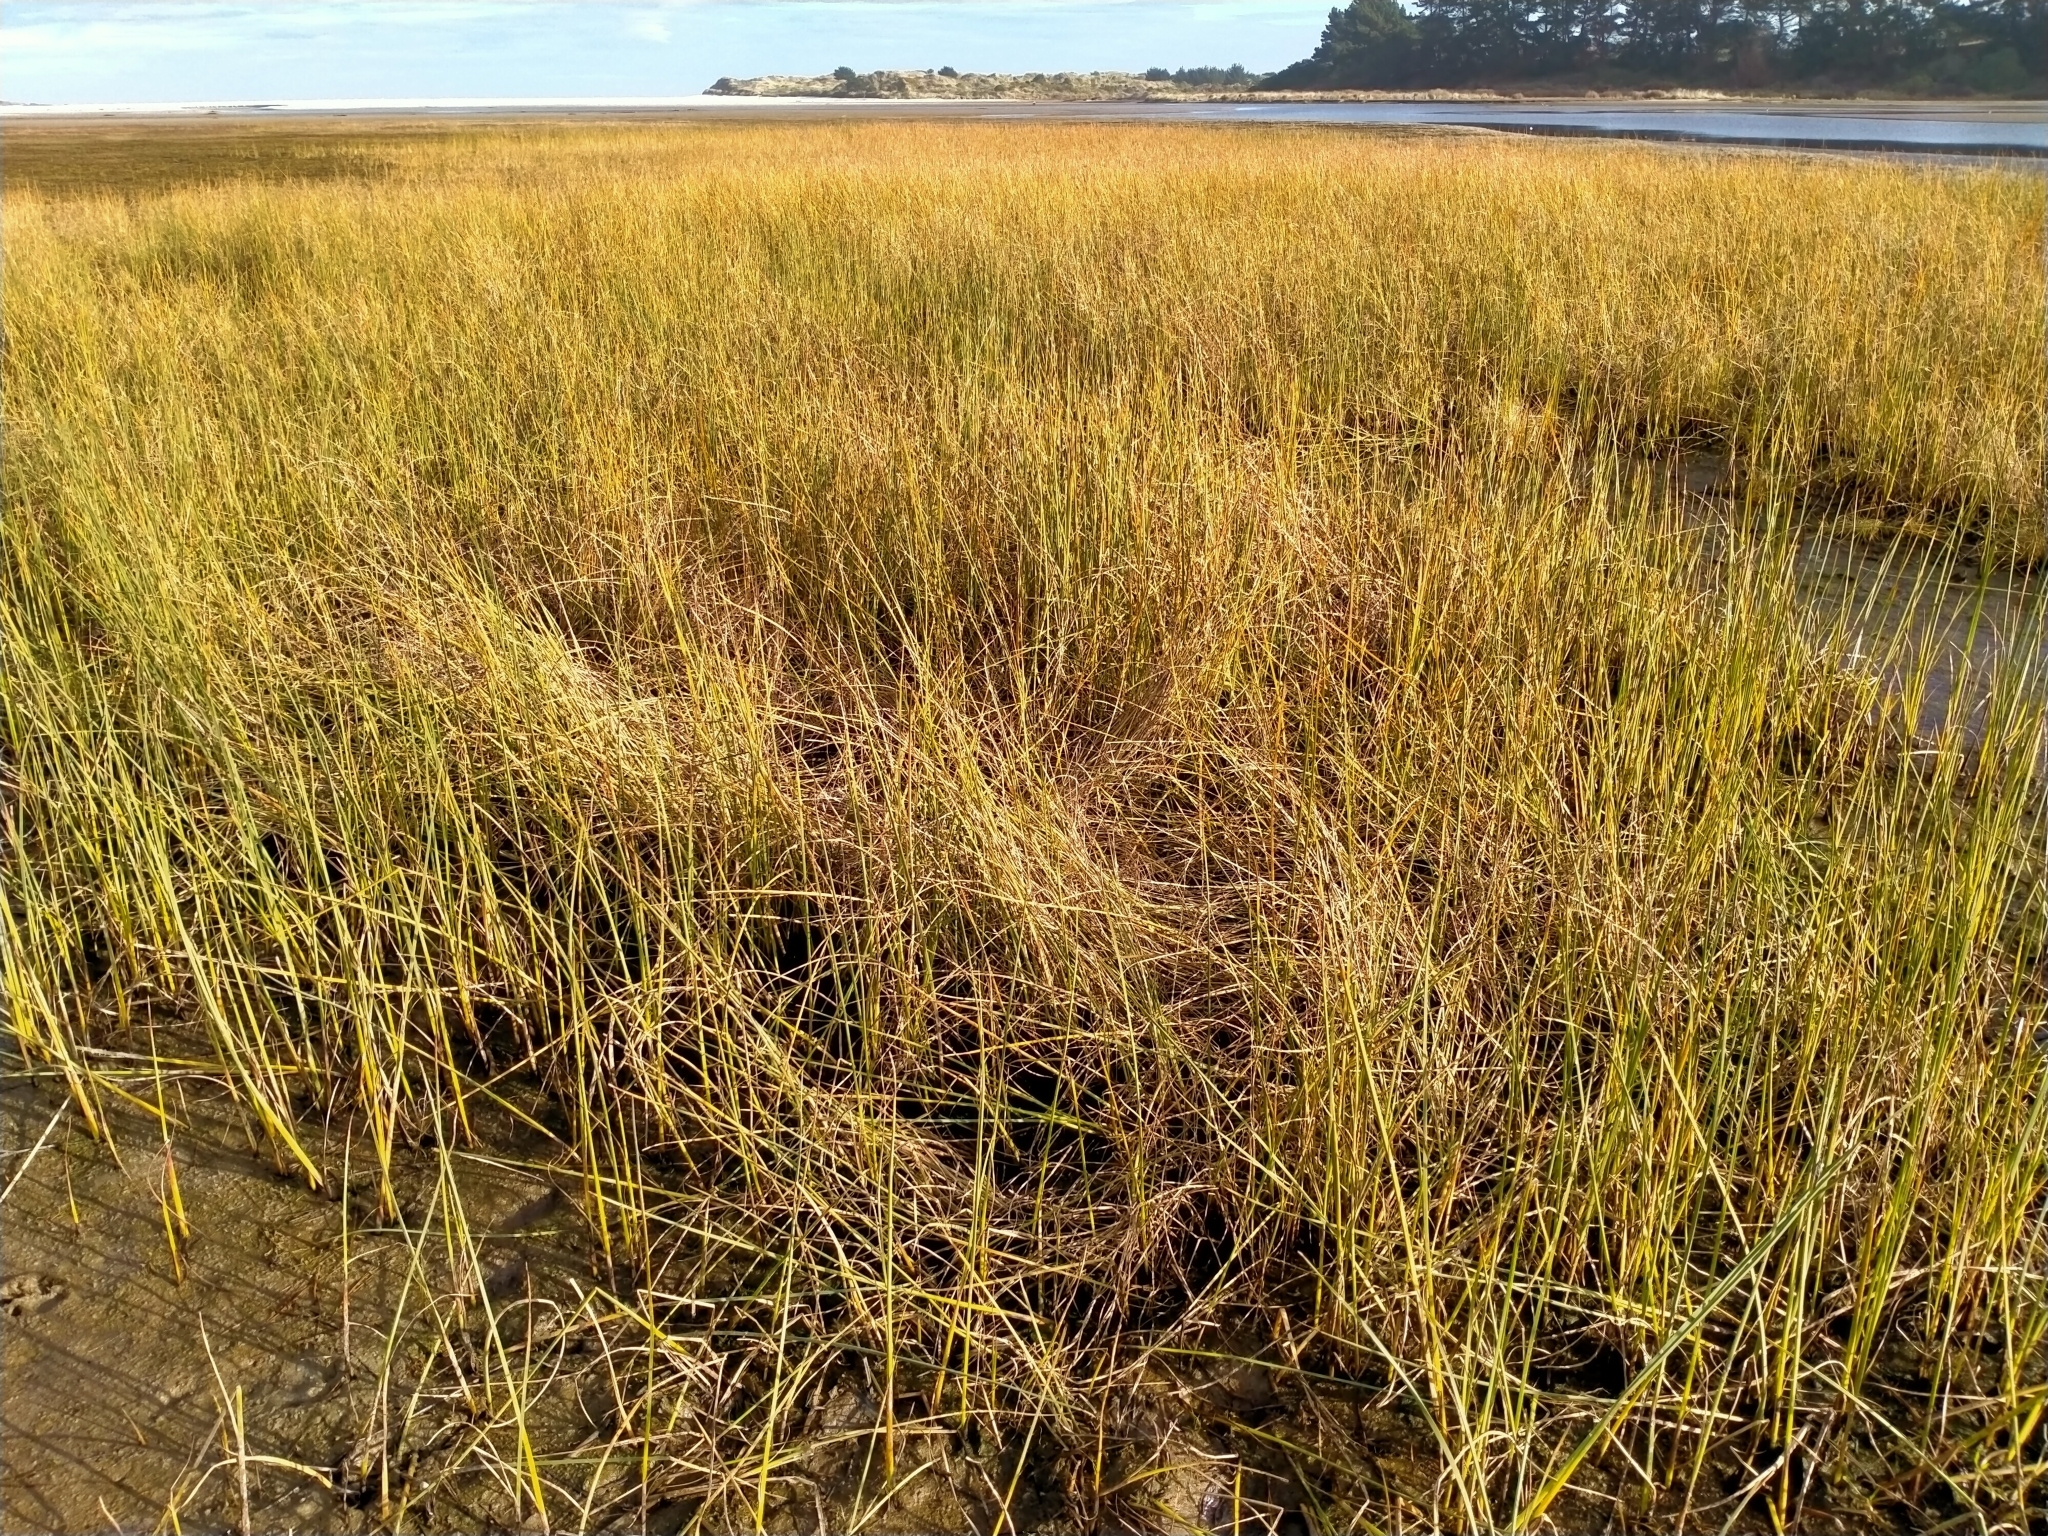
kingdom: Plantae
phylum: Tracheophyta
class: Liliopsida
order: Poales
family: Cyperaceae
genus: Schoenoplectus
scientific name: Schoenoplectus pungens
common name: Sharp club-rush
